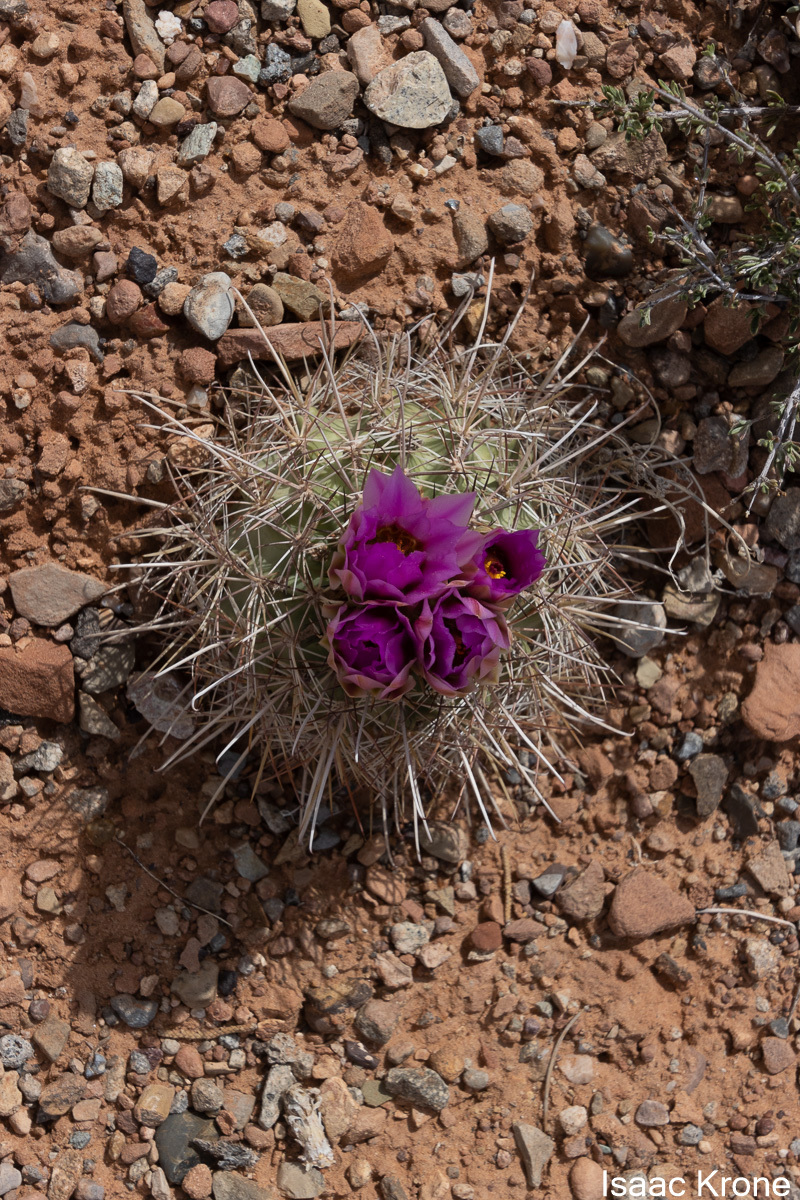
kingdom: Plantae
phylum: Tracheophyta
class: Magnoliopsida
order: Caryophyllales
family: Cactaceae
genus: Sclerocactus
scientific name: Sclerocactus parviflorus
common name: Small-flower fishhook cactus
